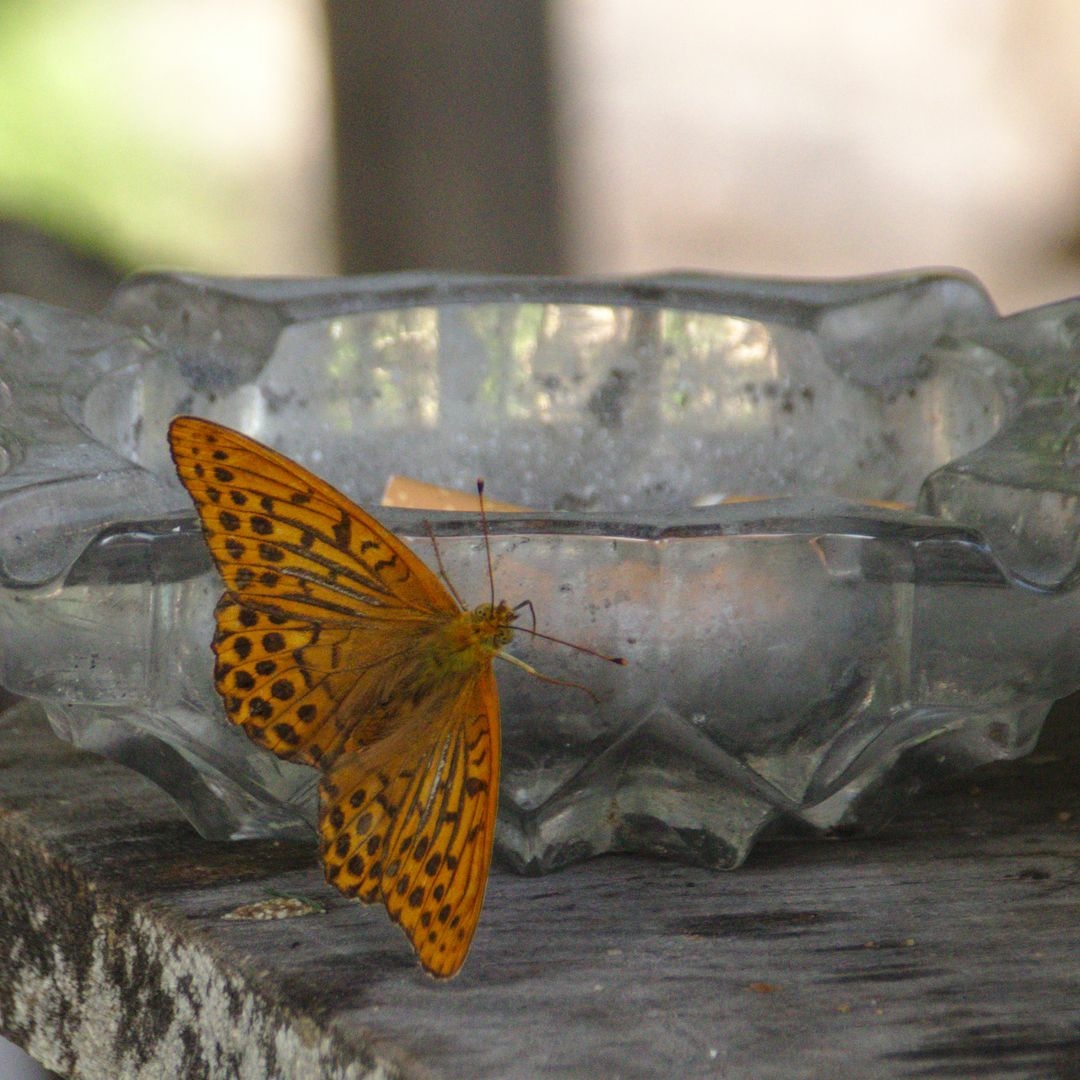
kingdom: Animalia
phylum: Arthropoda
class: Insecta
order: Lepidoptera
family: Nymphalidae
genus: Argynnis
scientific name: Argynnis paphia
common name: Silver-washed fritillary
